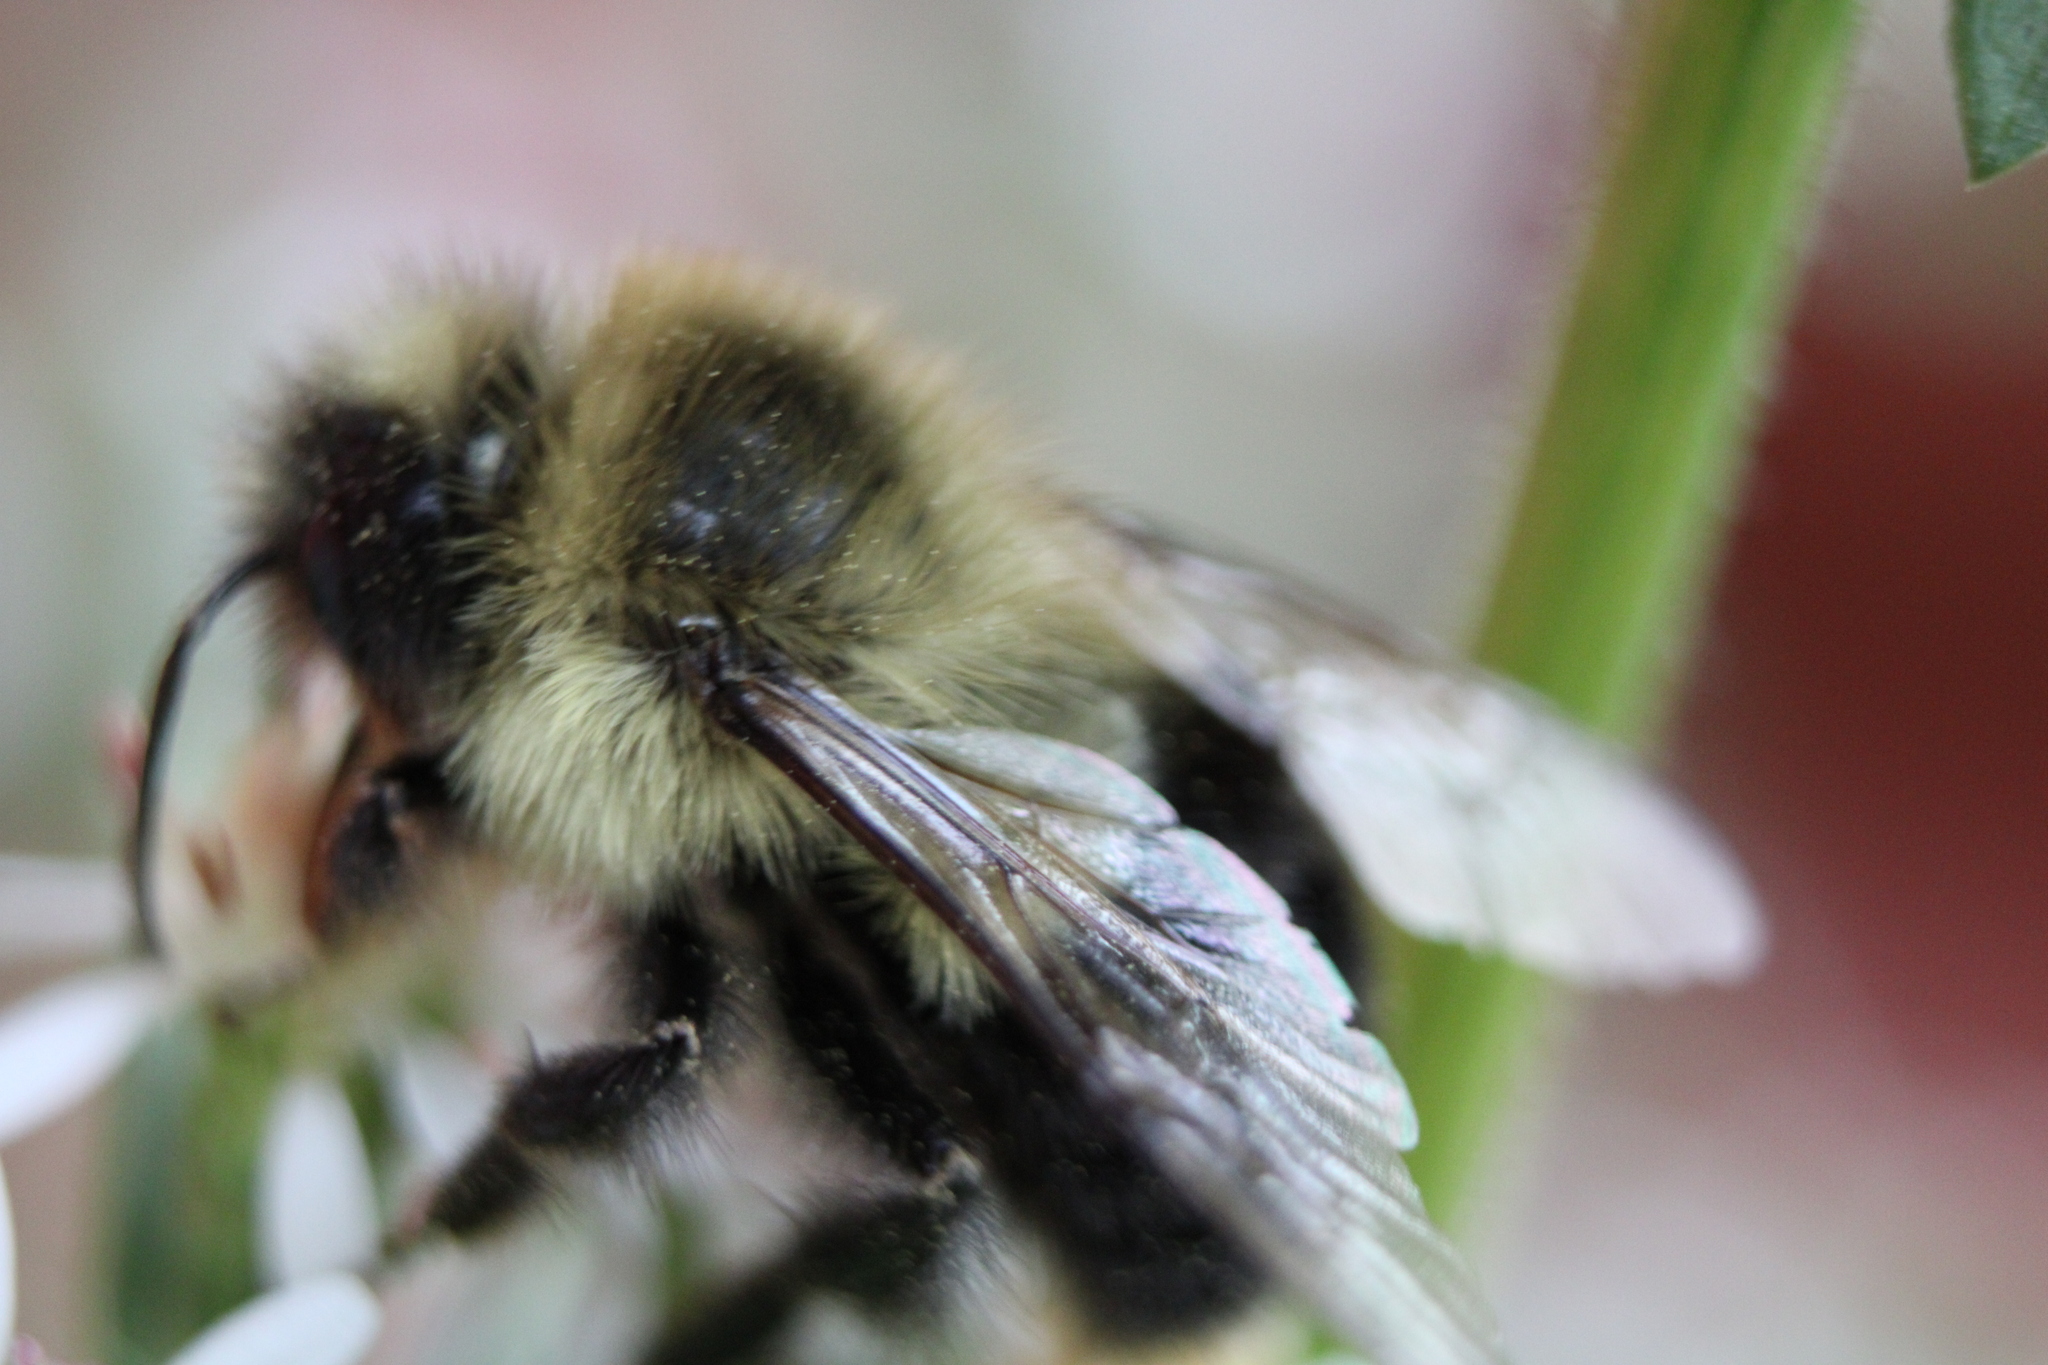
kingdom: Animalia
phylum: Arthropoda
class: Insecta
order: Hymenoptera
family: Apidae
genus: Bombus
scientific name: Bombus impatiens
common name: Common eastern bumble bee
